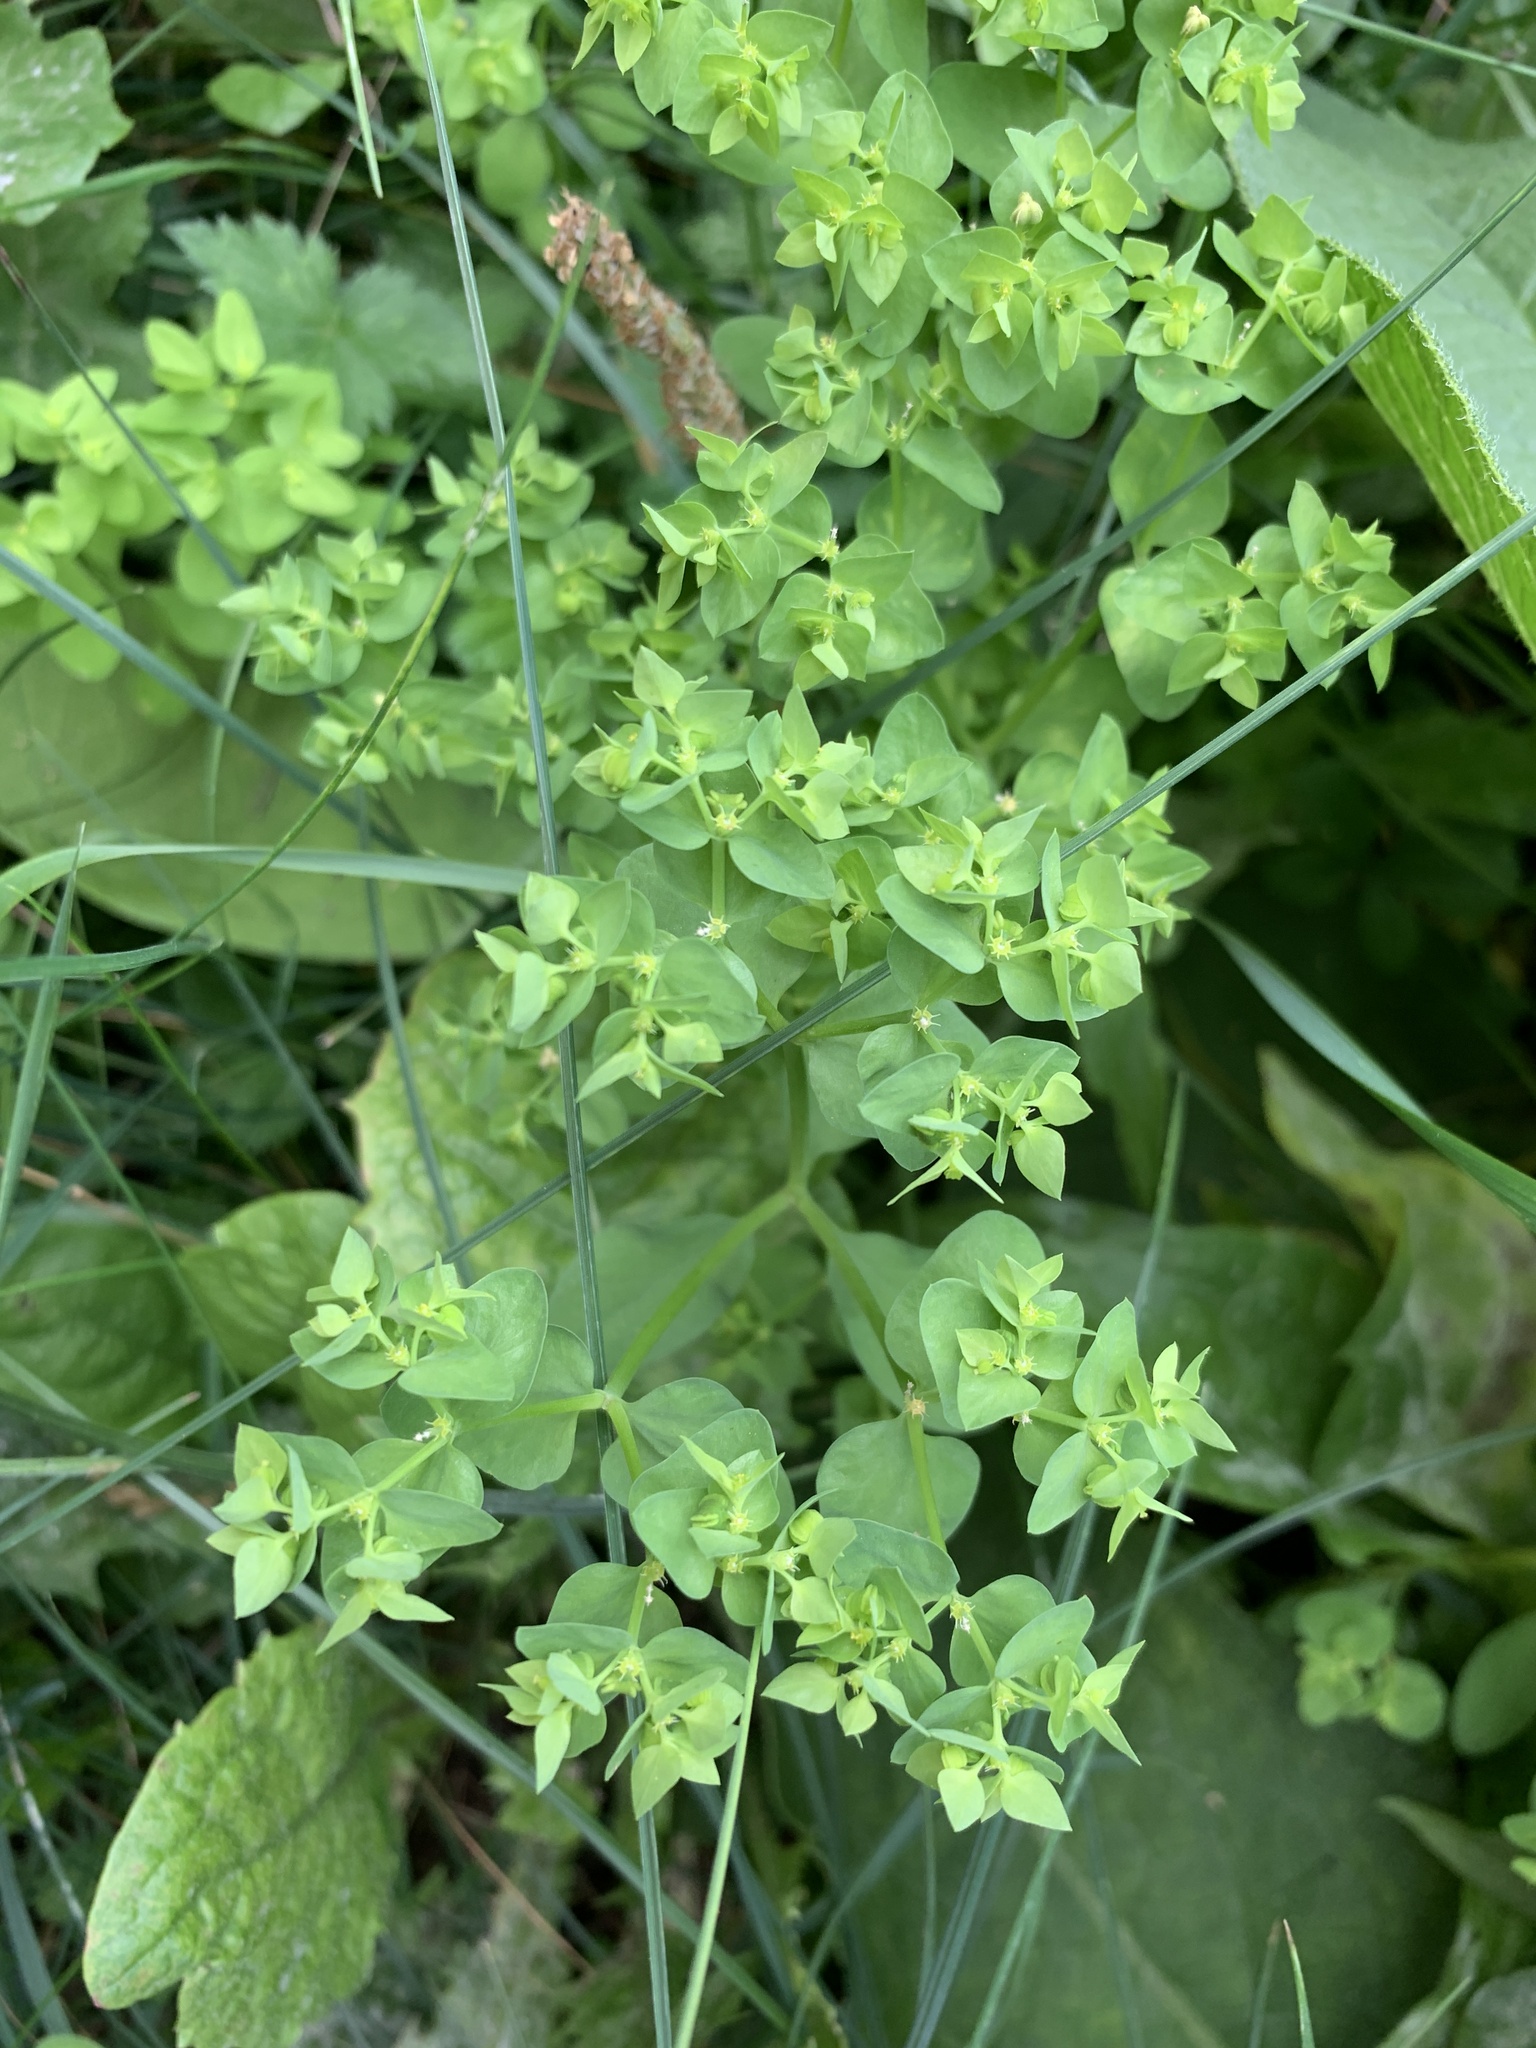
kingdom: Plantae
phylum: Tracheophyta
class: Magnoliopsida
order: Malpighiales
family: Euphorbiaceae
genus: Euphorbia
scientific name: Euphorbia peplus
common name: Petty spurge
